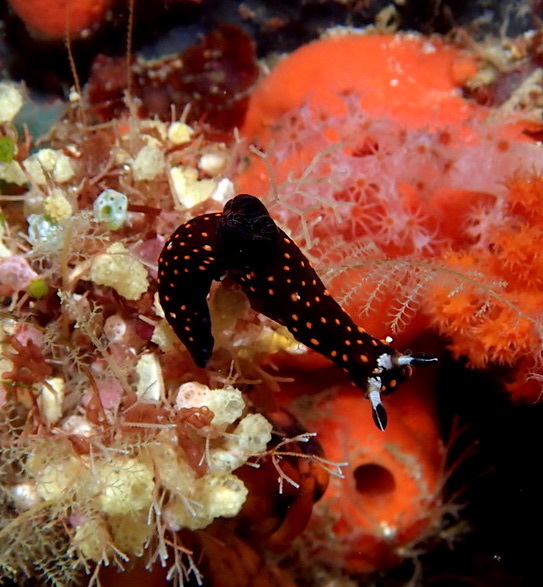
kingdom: Animalia
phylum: Mollusca
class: Gastropoda
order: Nudibranchia
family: Polyceridae
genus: Nembrotha
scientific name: Nembrotha livingstonei
